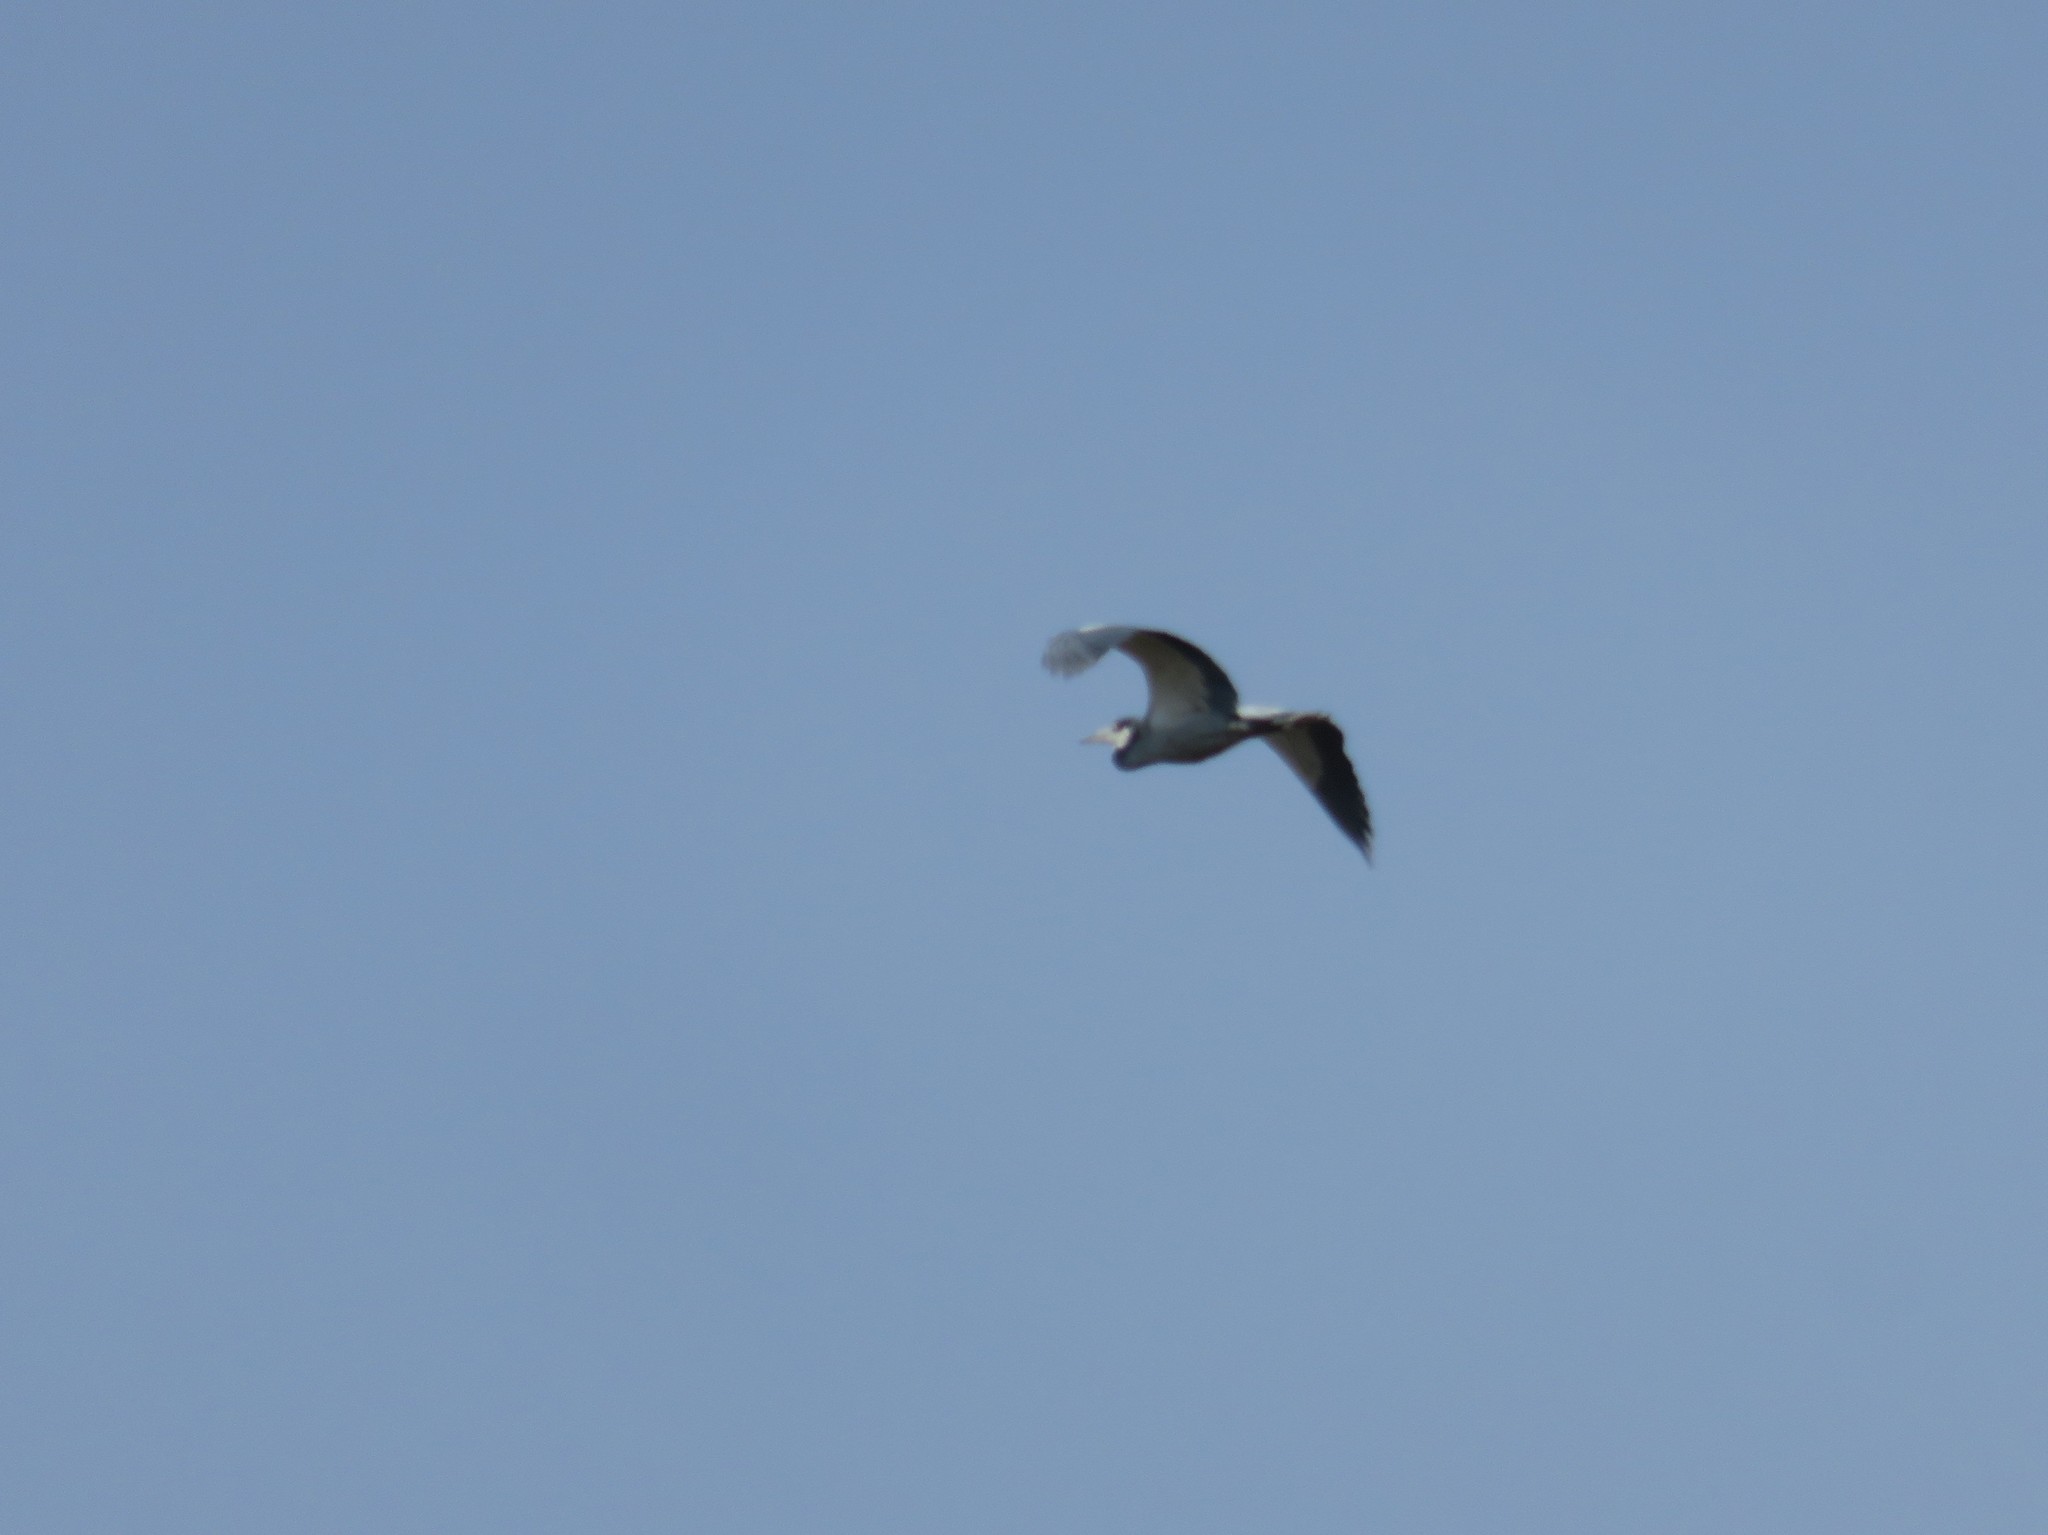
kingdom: Animalia
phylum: Chordata
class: Aves
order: Pelecaniformes
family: Ardeidae
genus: Ardea
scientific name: Ardea melanocephala
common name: Black-headed heron
